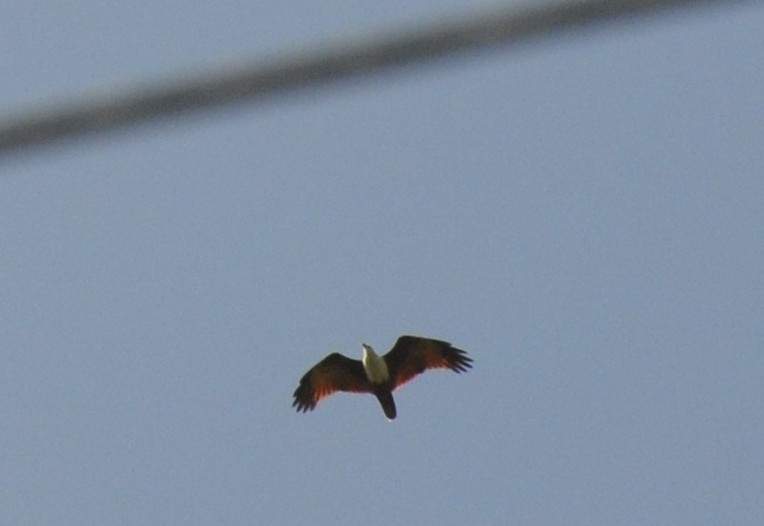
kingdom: Animalia
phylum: Chordata
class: Aves
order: Accipitriformes
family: Accipitridae
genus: Haliastur
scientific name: Haliastur indus
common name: Brahminy kite
